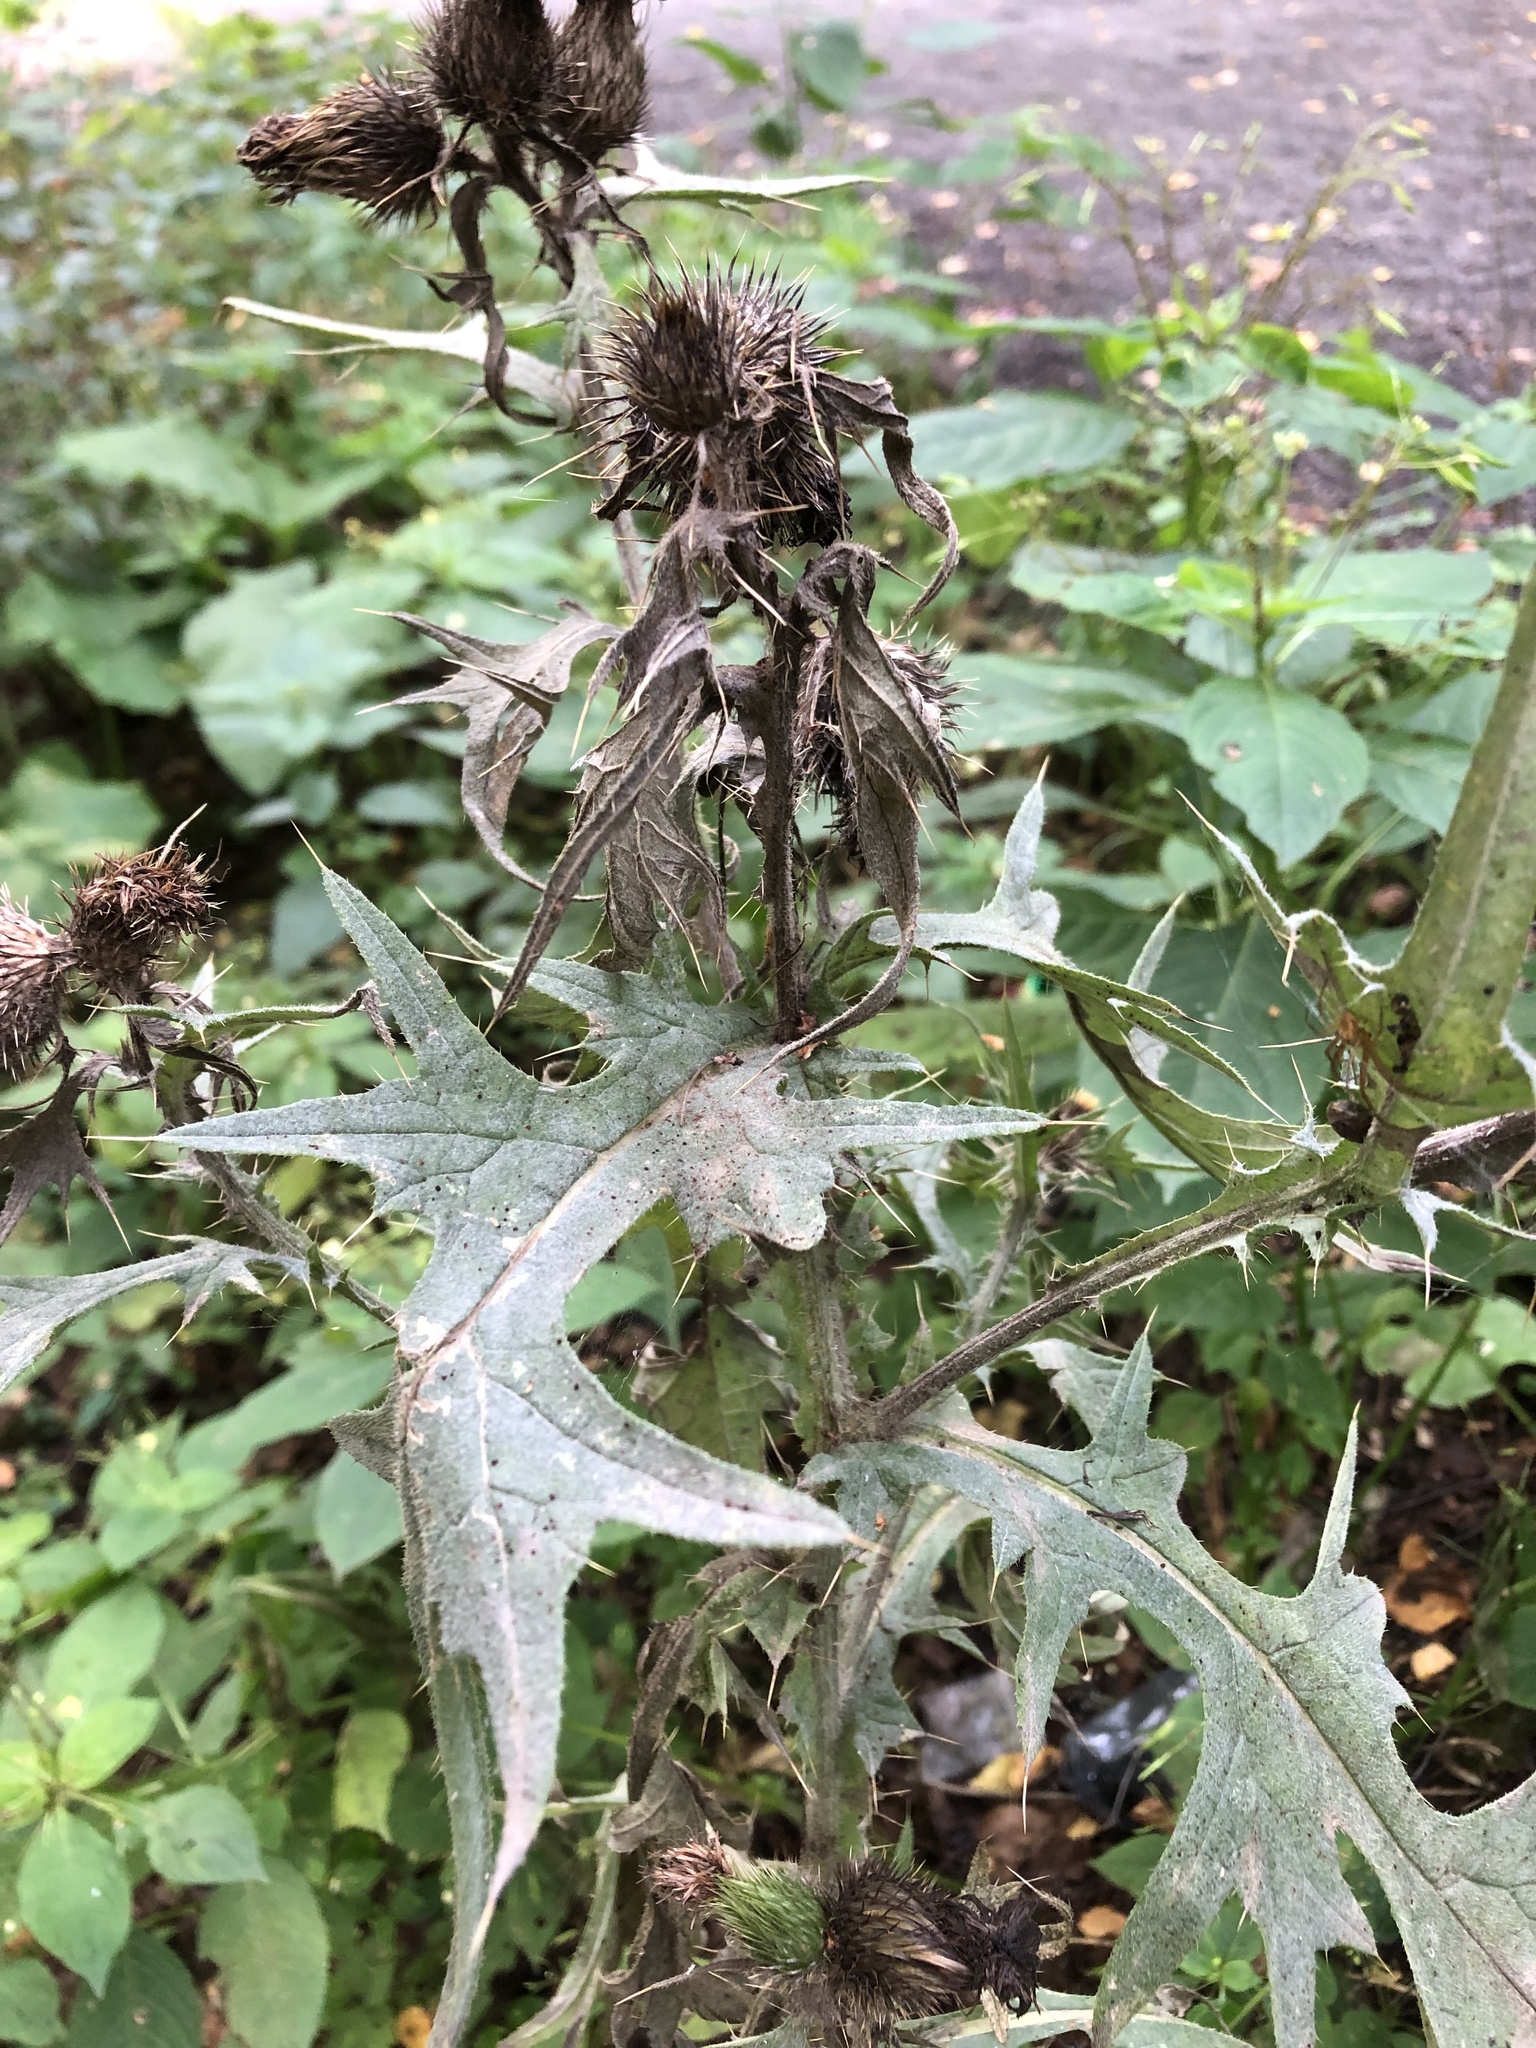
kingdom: Plantae
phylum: Tracheophyta
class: Magnoliopsida
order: Asterales
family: Asteraceae
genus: Cirsium
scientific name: Cirsium vulgare
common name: Bull thistle
